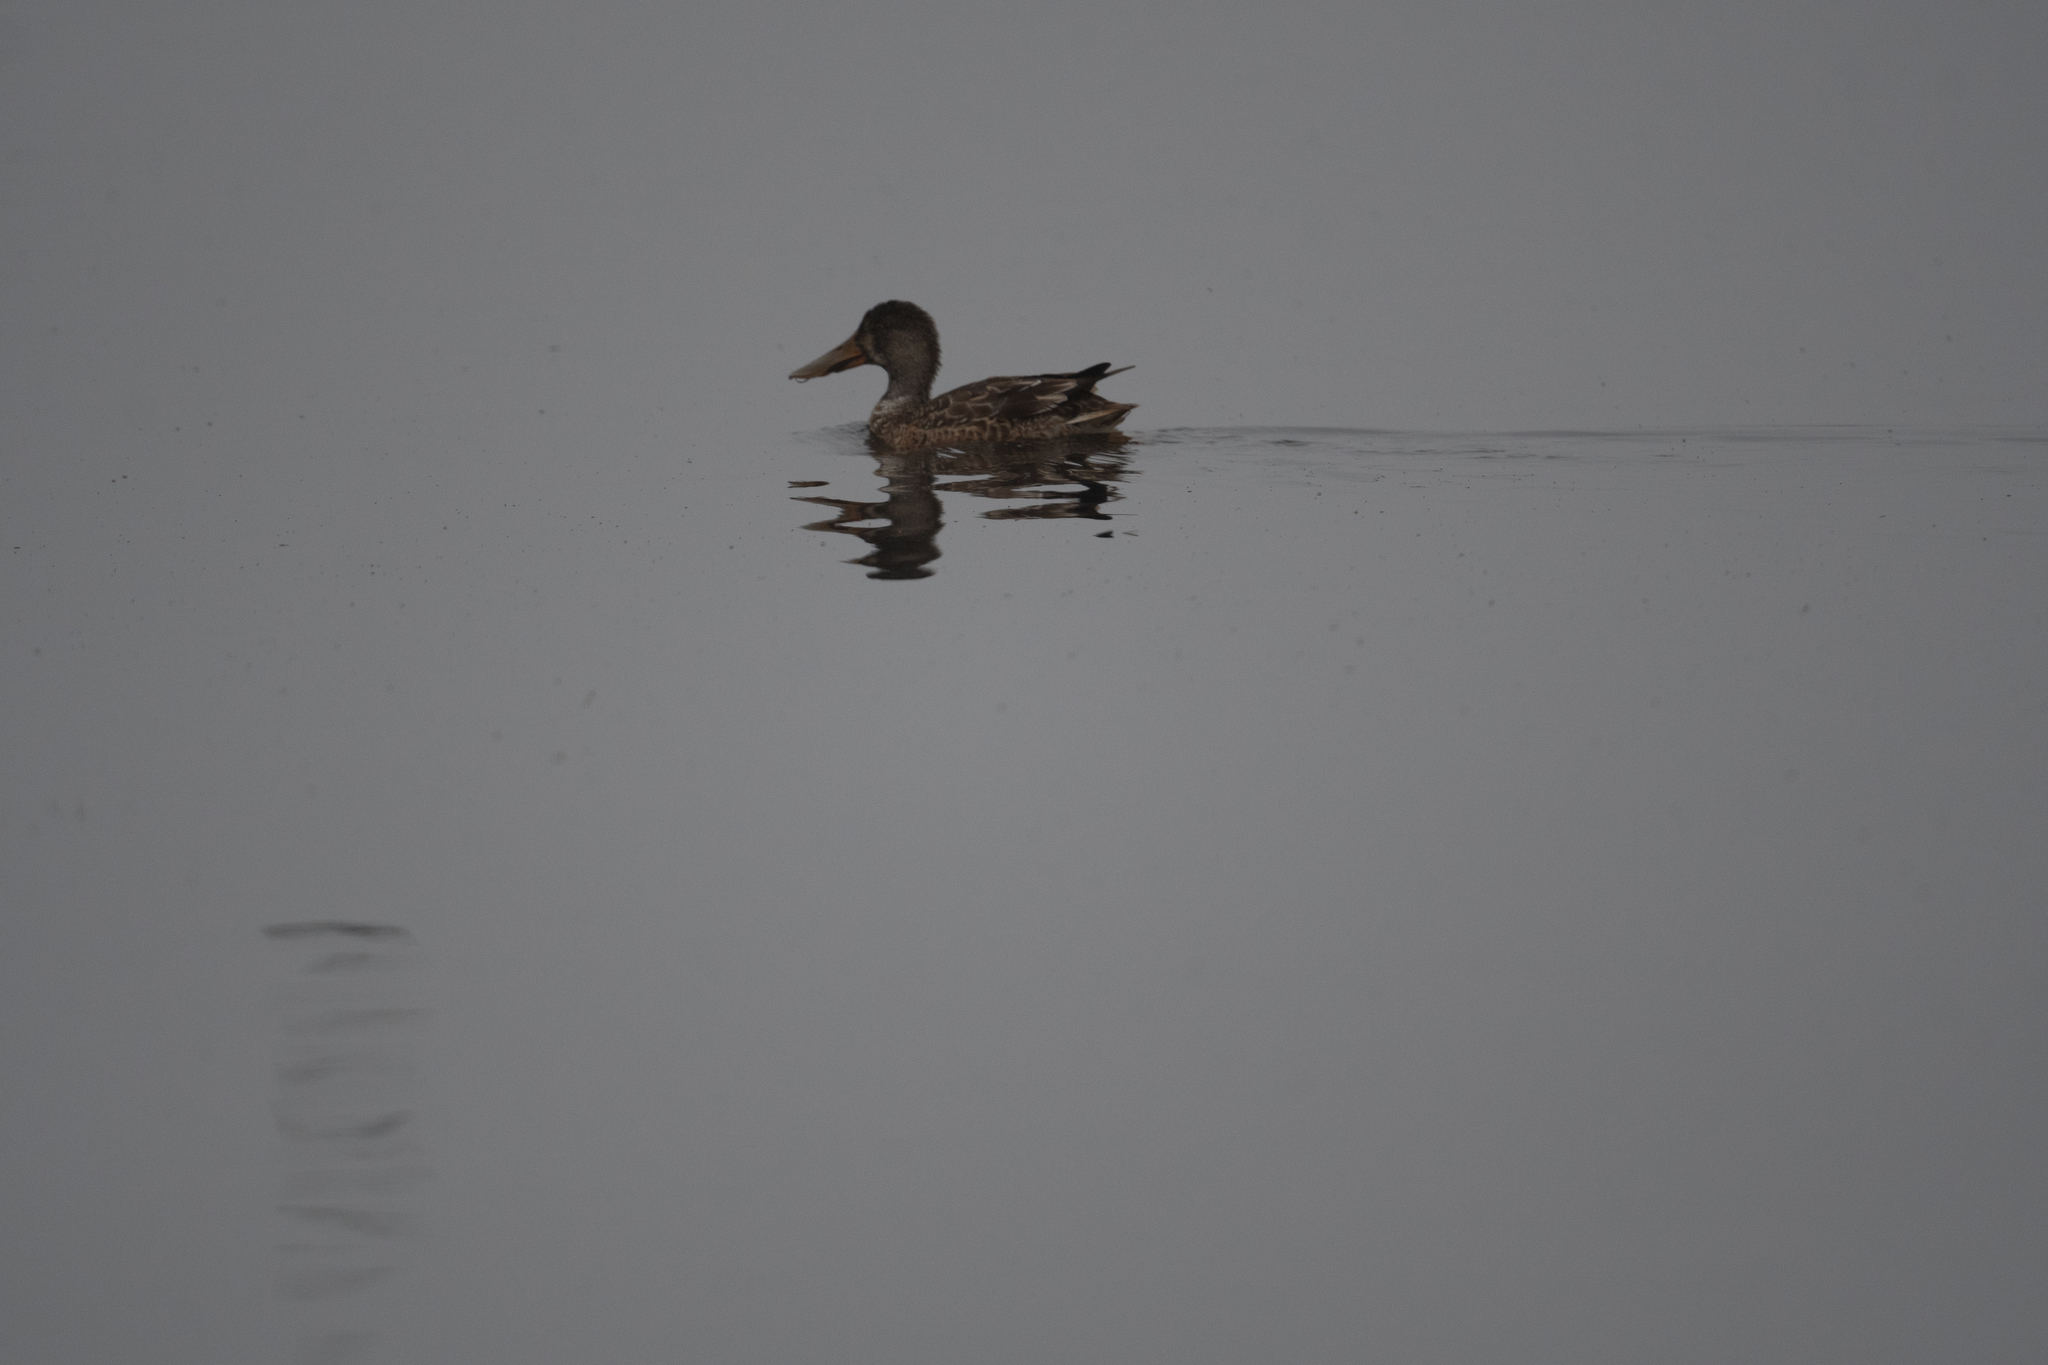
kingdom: Animalia
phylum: Chordata
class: Aves
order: Anseriformes
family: Anatidae
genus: Spatula
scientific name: Spatula clypeata
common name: Northern shoveler
